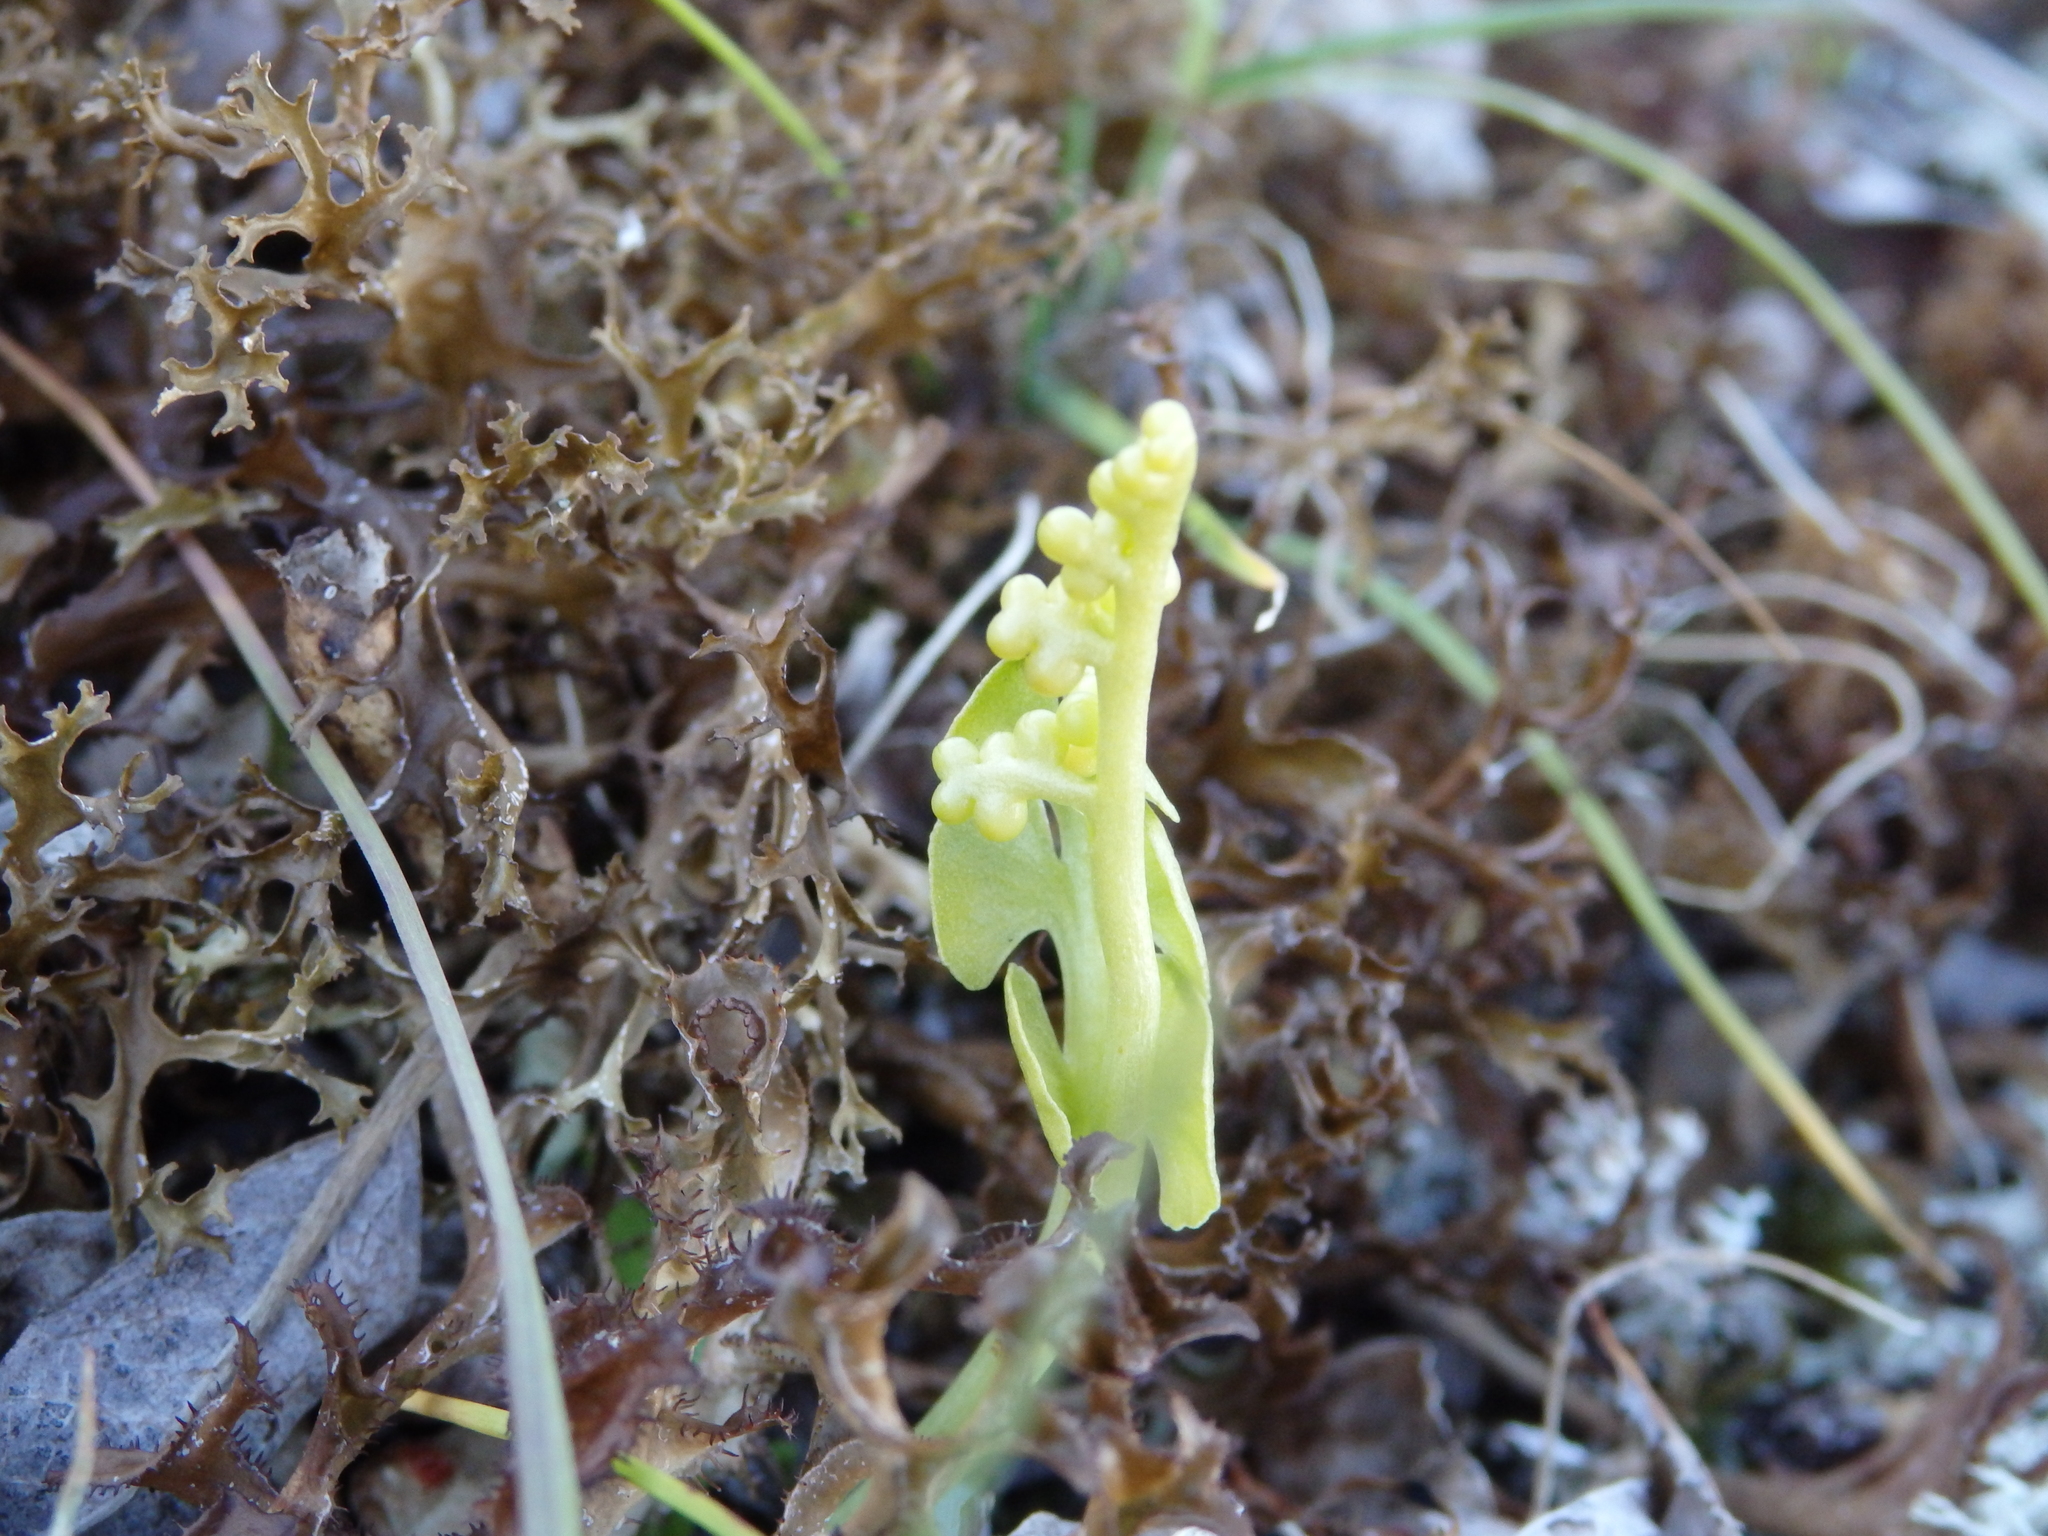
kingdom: Plantae
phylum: Tracheophyta
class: Polypodiopsida
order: Ophioglossales
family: Ophioglossaceae
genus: Botrychium
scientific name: Botrychium lunaria
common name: Moonwort
